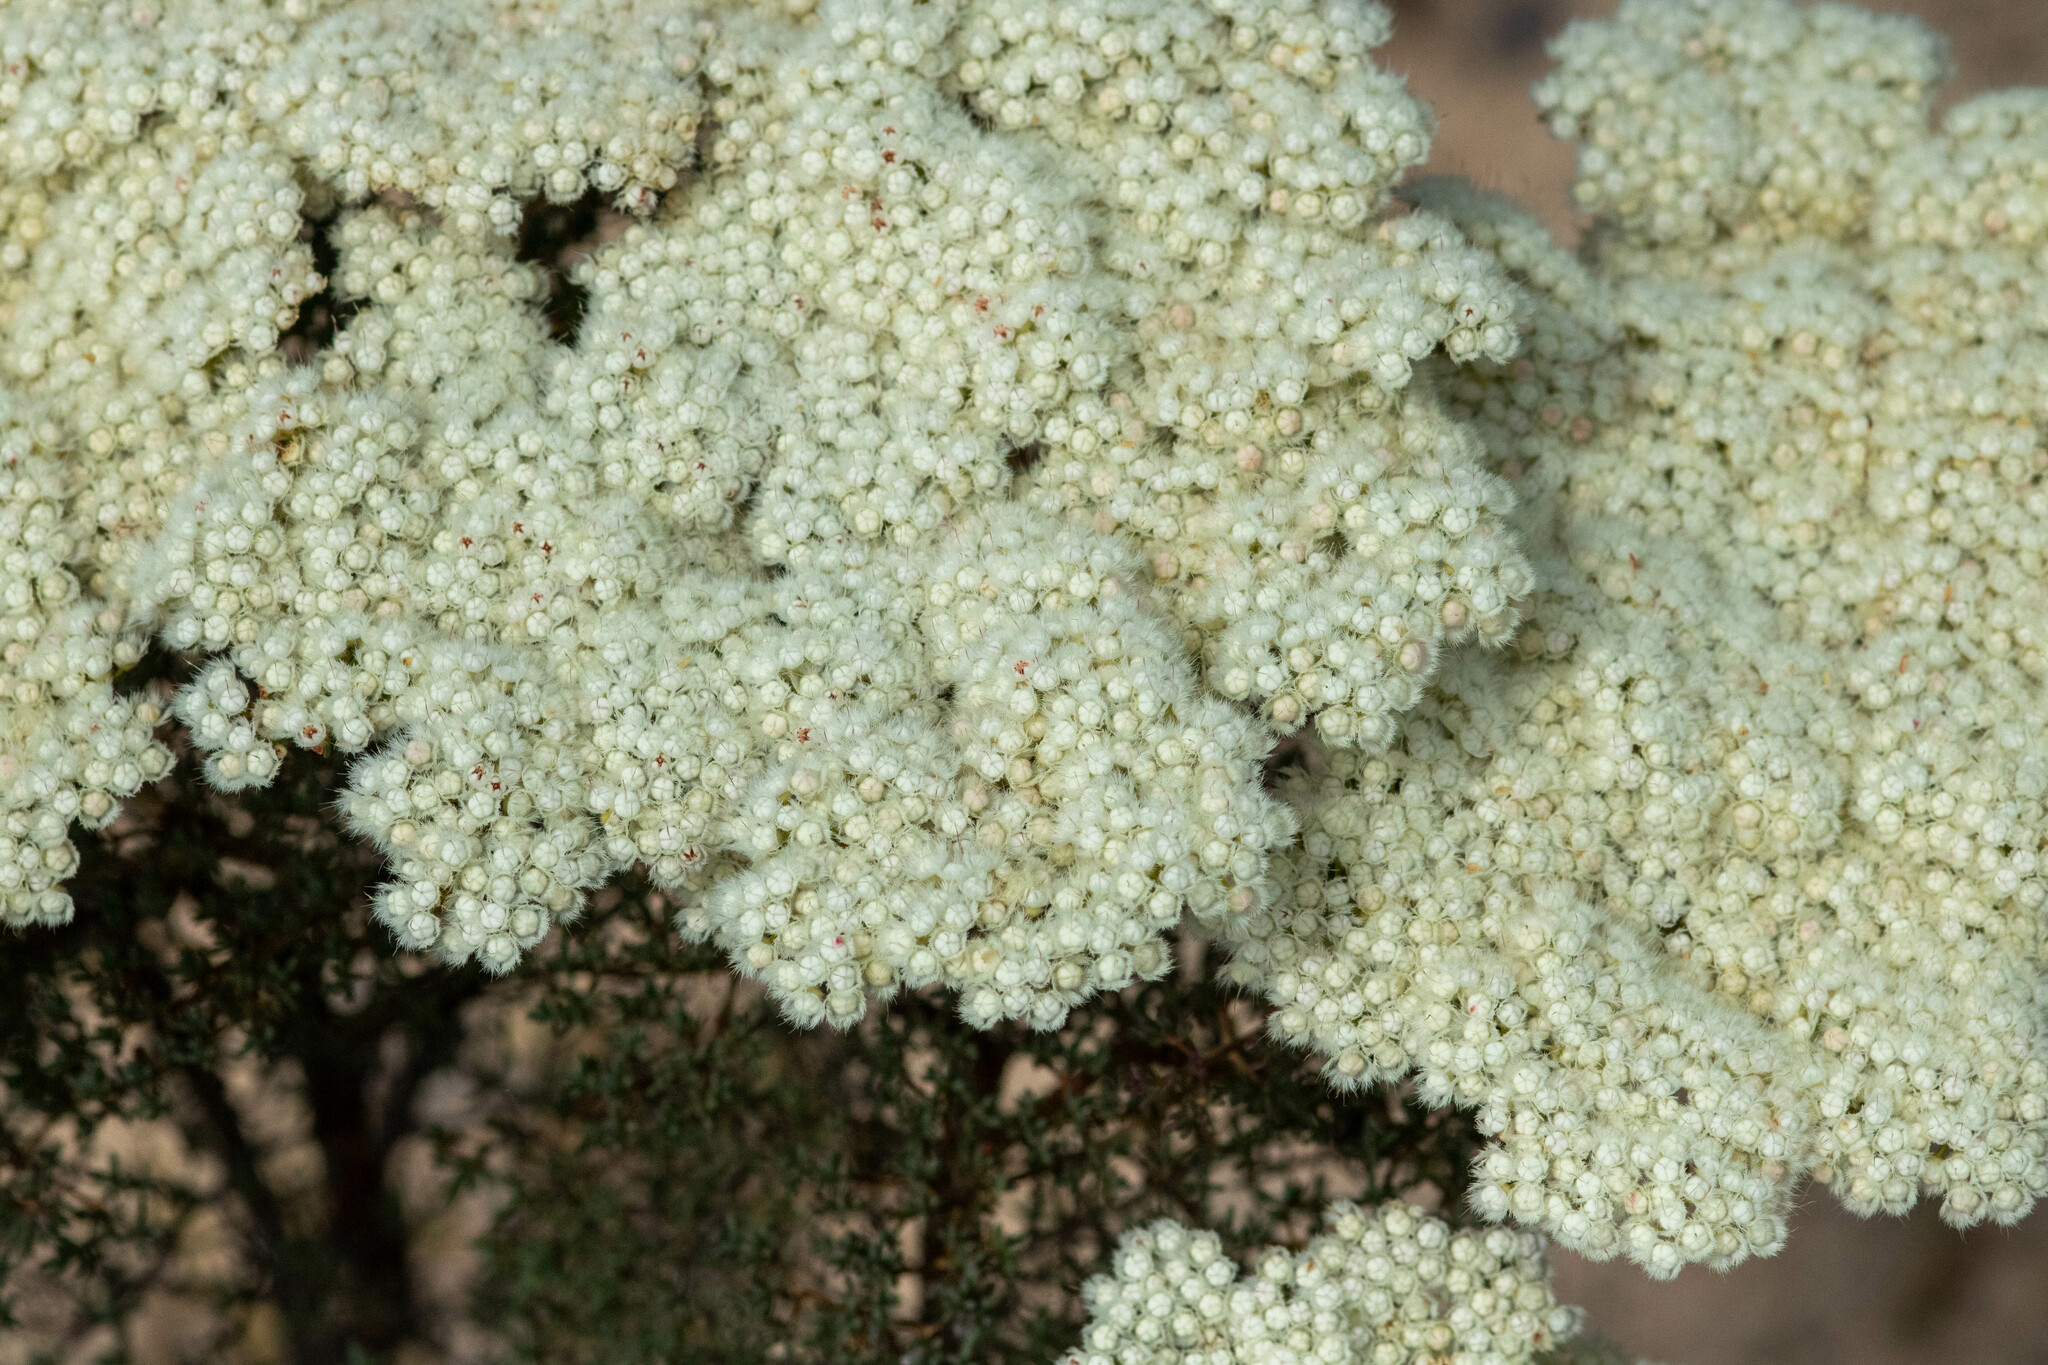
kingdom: Plantae
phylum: Tracheophyta
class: Magnoliopsida
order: Myrtales
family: Myrtaceae
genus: Verticordia
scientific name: Verticordia capillaris
